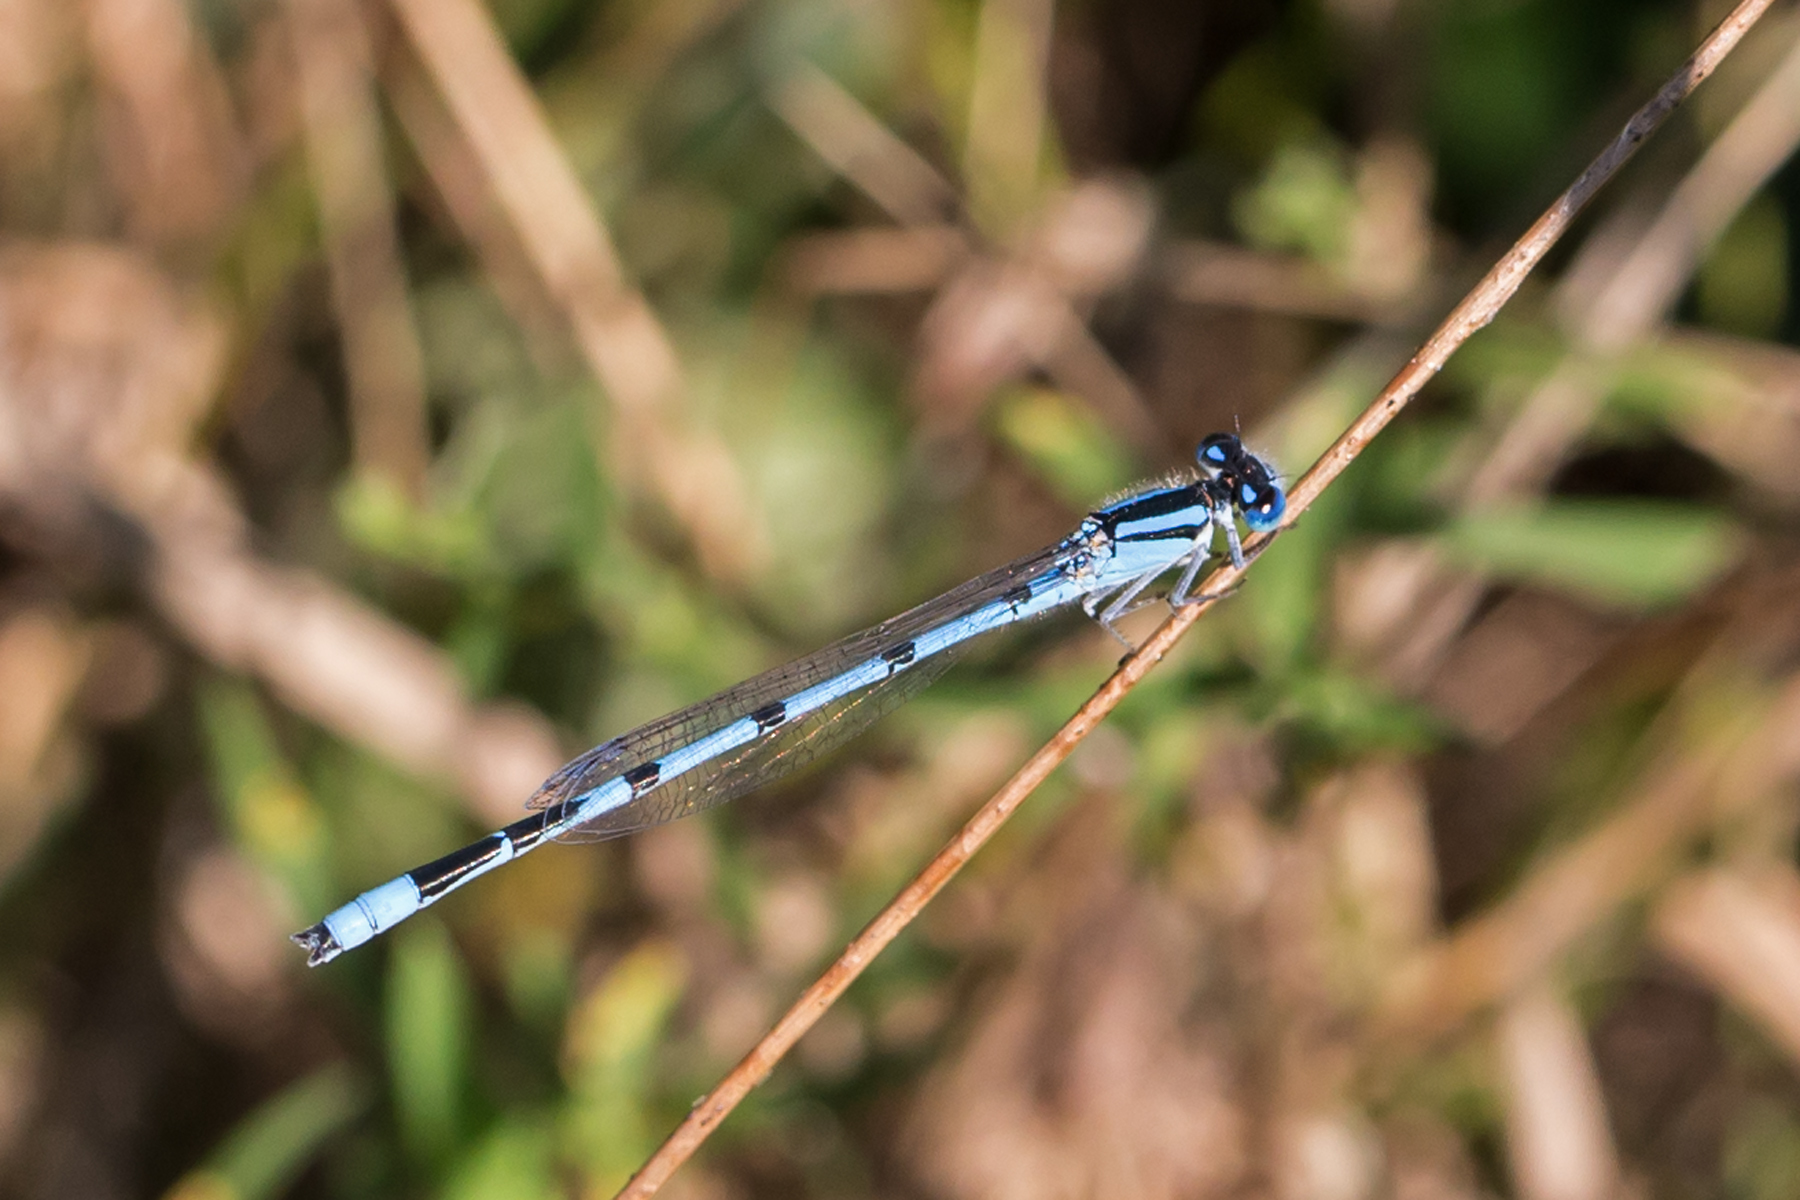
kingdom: Animalia
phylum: Arthropoda
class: Insecta
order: Odonata
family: Coenagrionidae
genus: Enallagma
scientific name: Enallagma civile
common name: Damselfly
